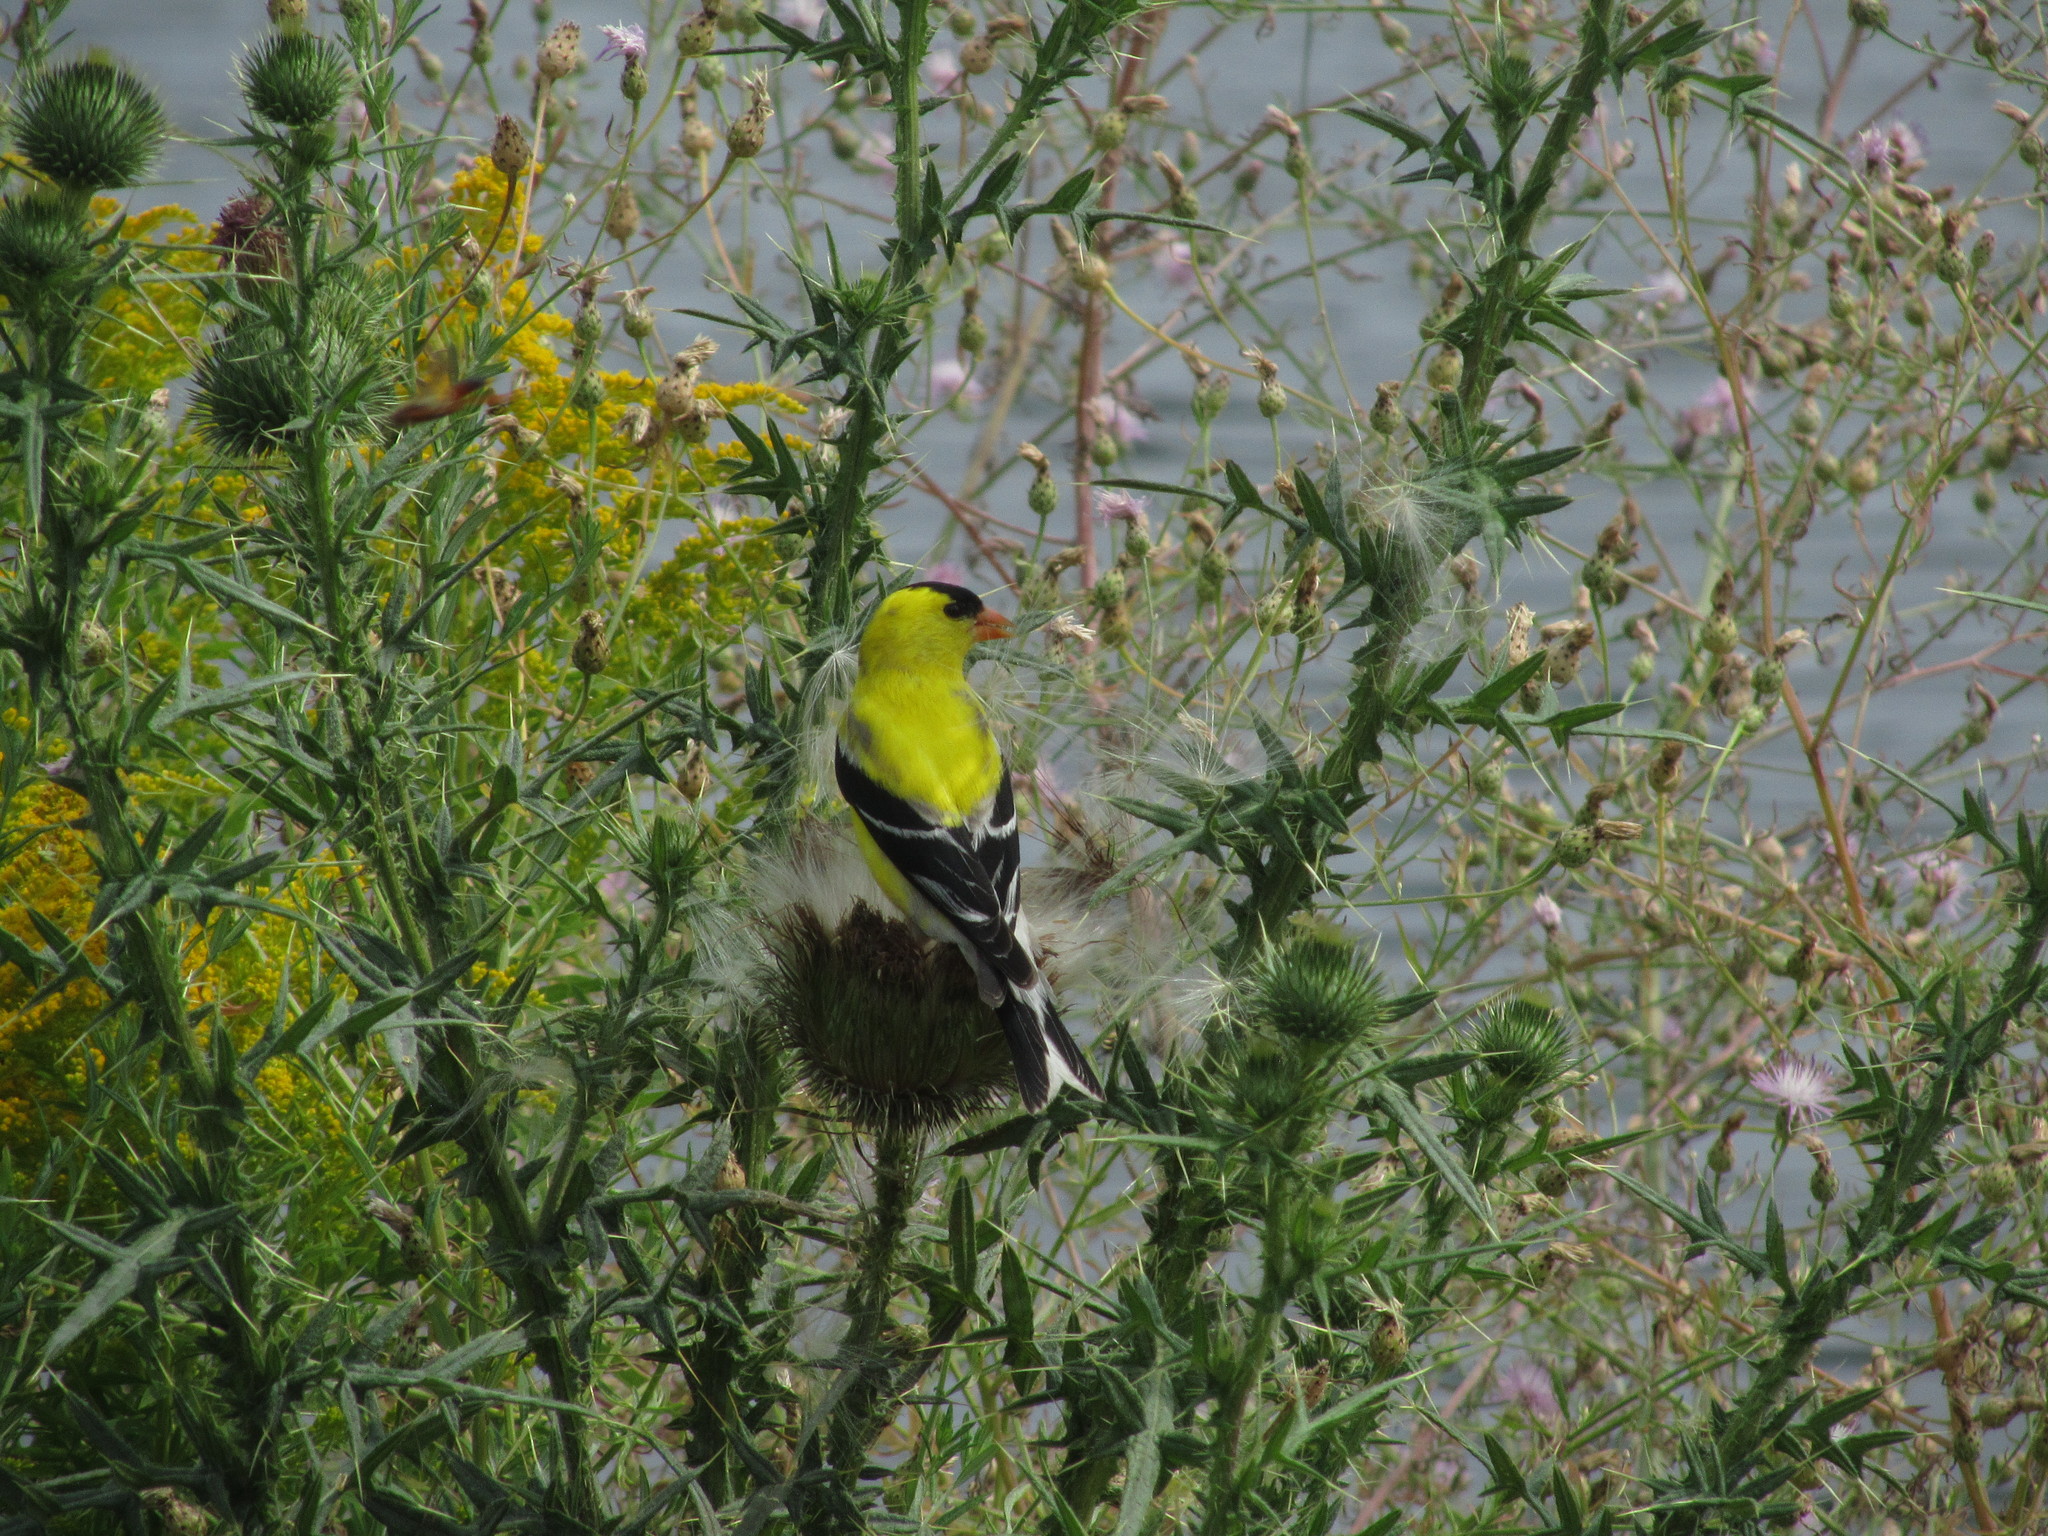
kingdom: Animalia
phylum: Chordata
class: Aves
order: Passeriformes
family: Fringillidae
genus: Spinus
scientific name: Spinus tristis
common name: American goldfinch
